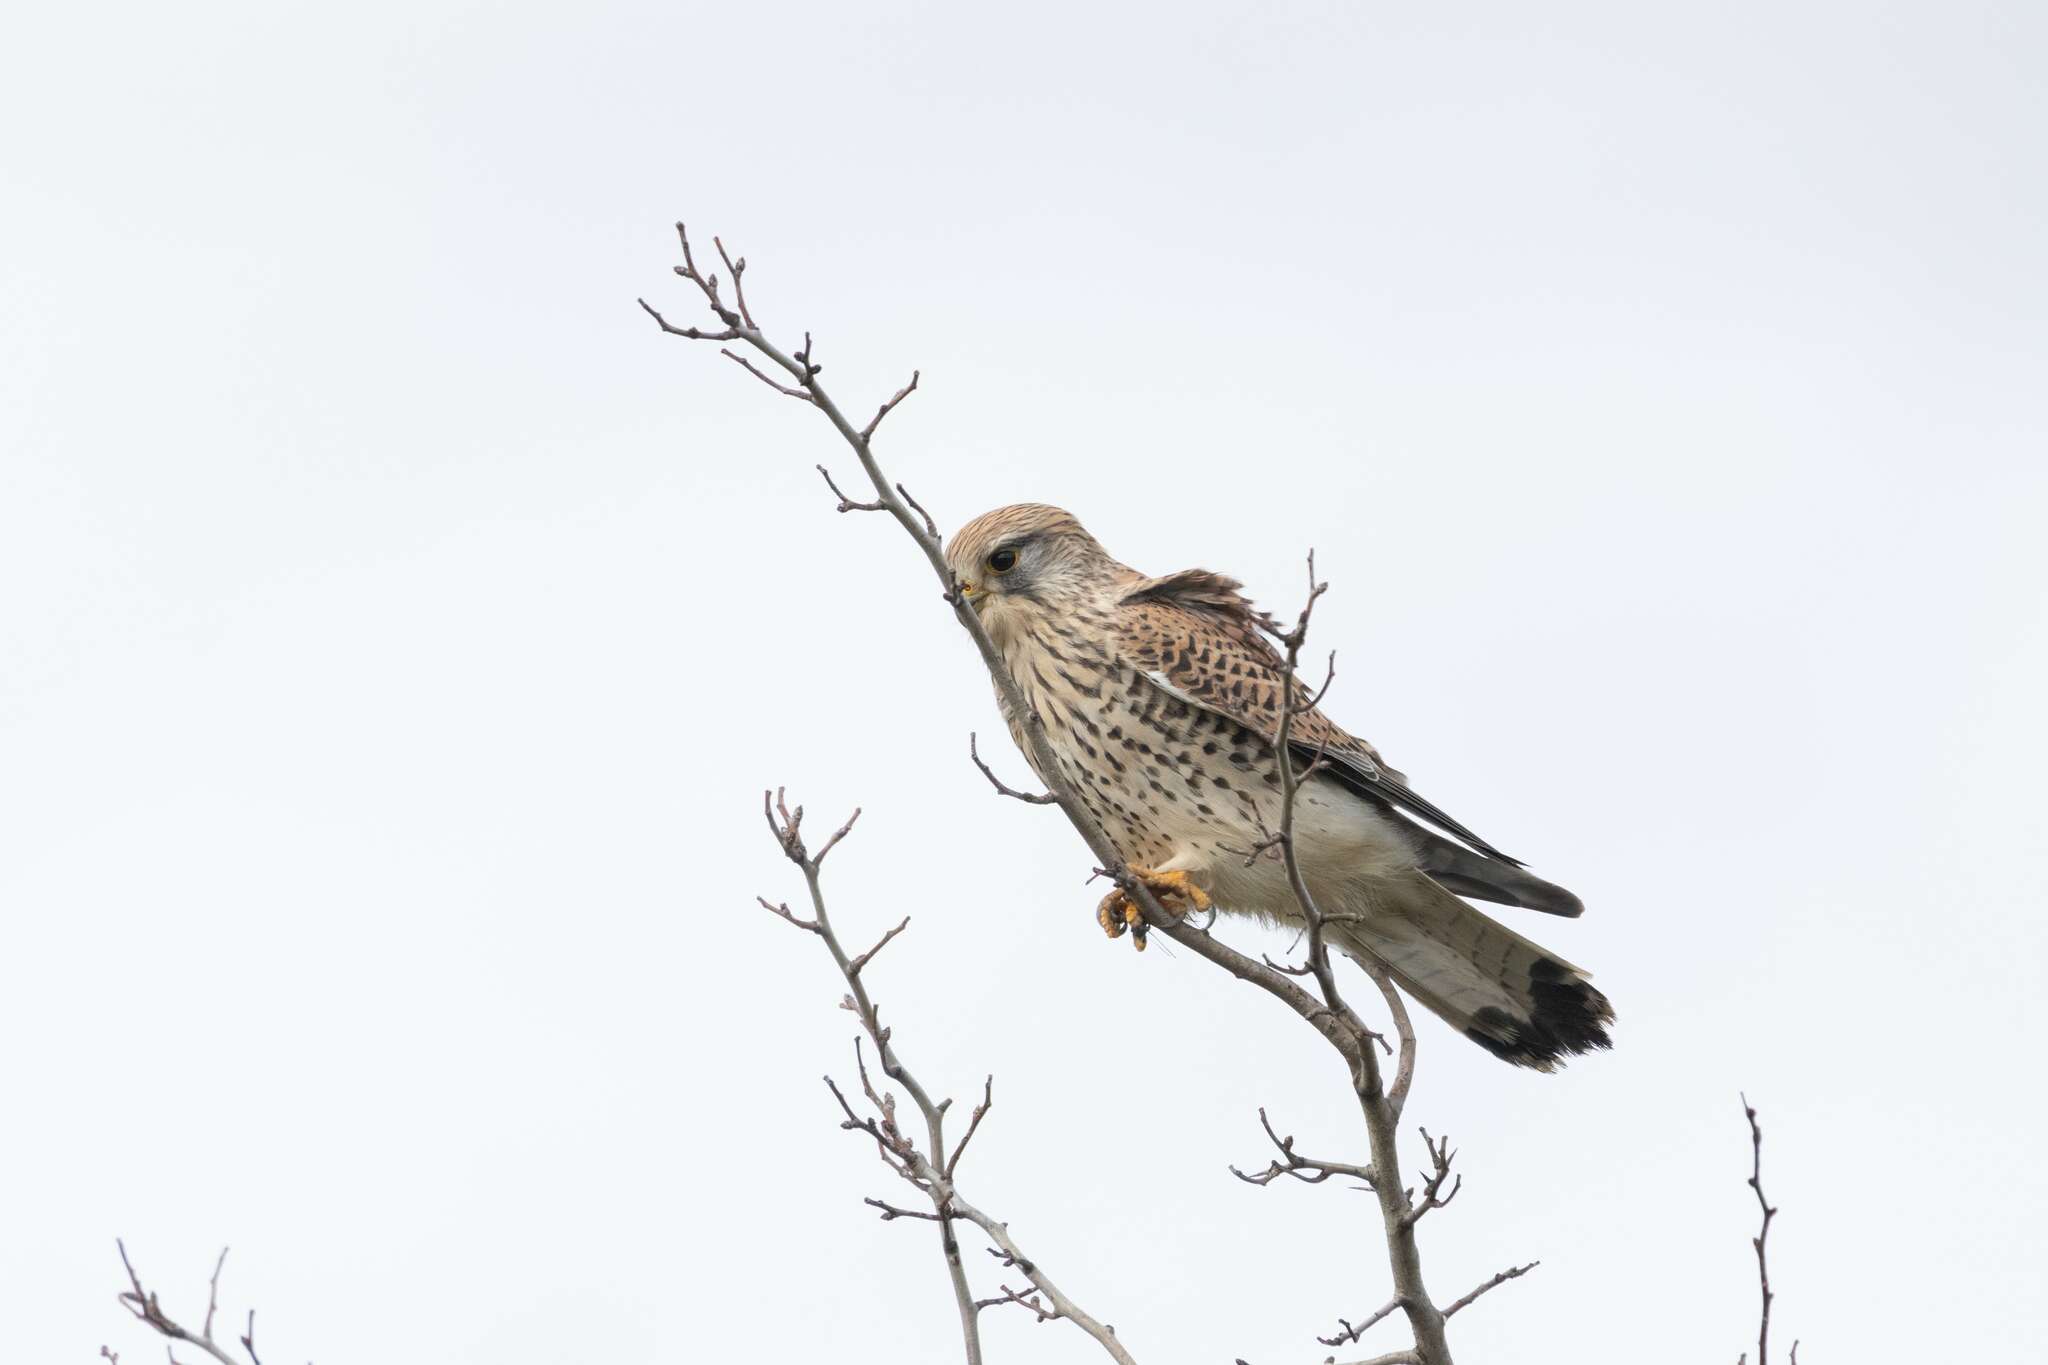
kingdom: Animalia
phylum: Chordata
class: Aves
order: Falconiformes
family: Falconidae
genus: Falco
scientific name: Falco tinnunculus
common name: Common kestrel
